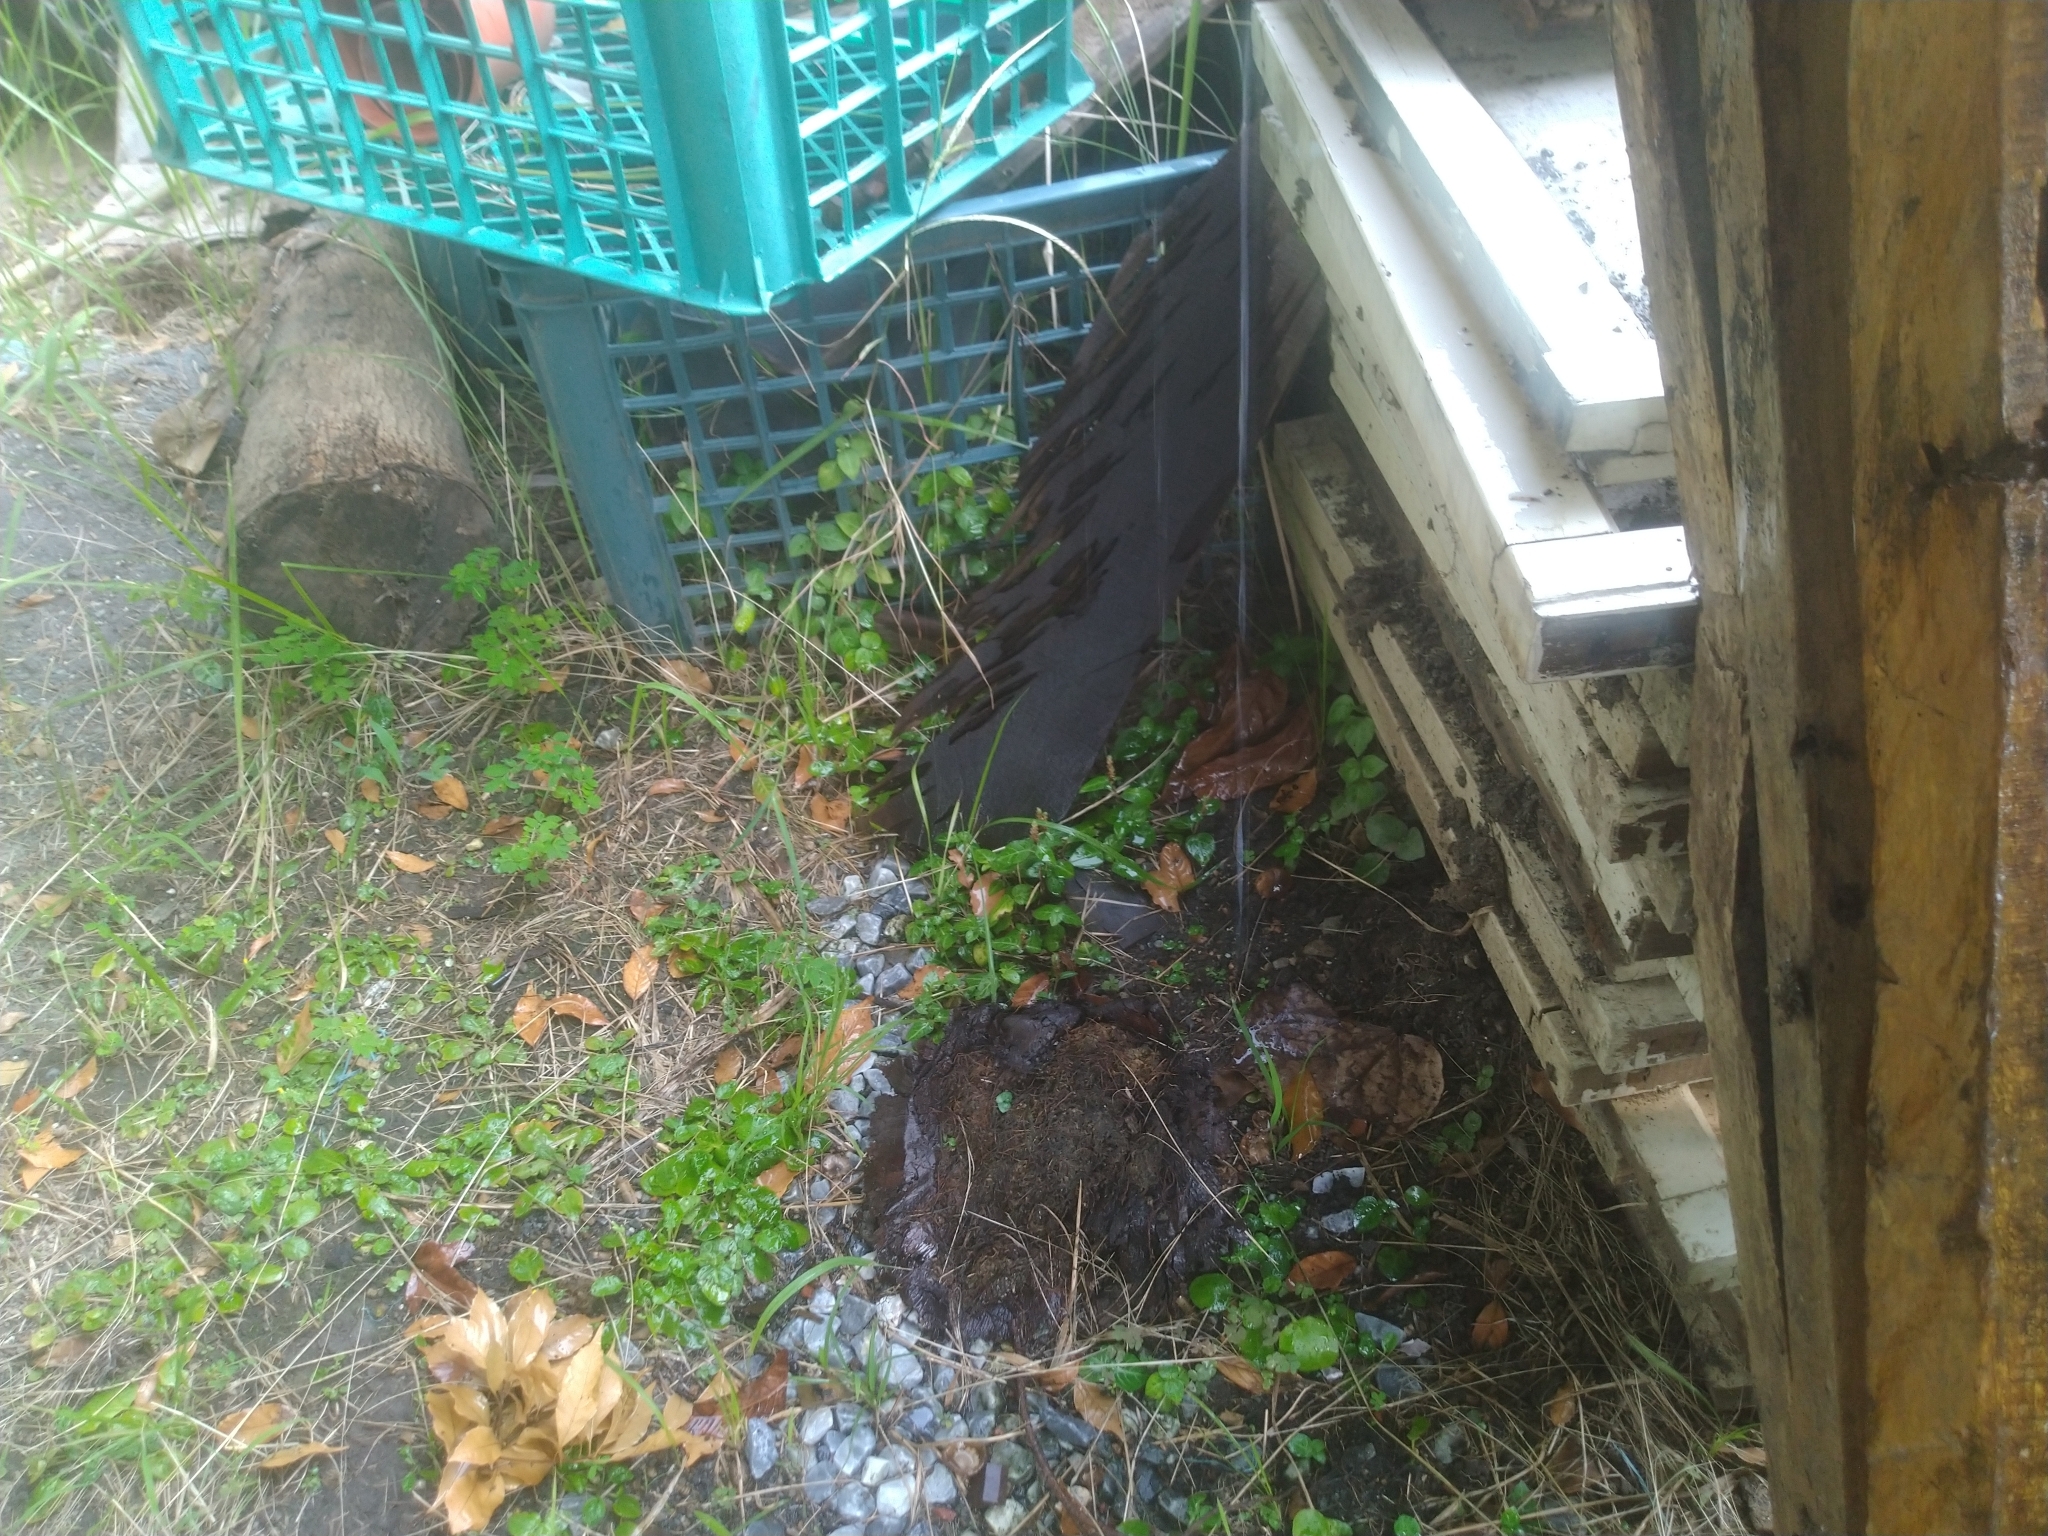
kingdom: Plantae
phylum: Tracheophyta
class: Magnoliopsida
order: Lamiales
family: Acanthaceae
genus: Lepidagathis
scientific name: Lepidagathis inaequalis
